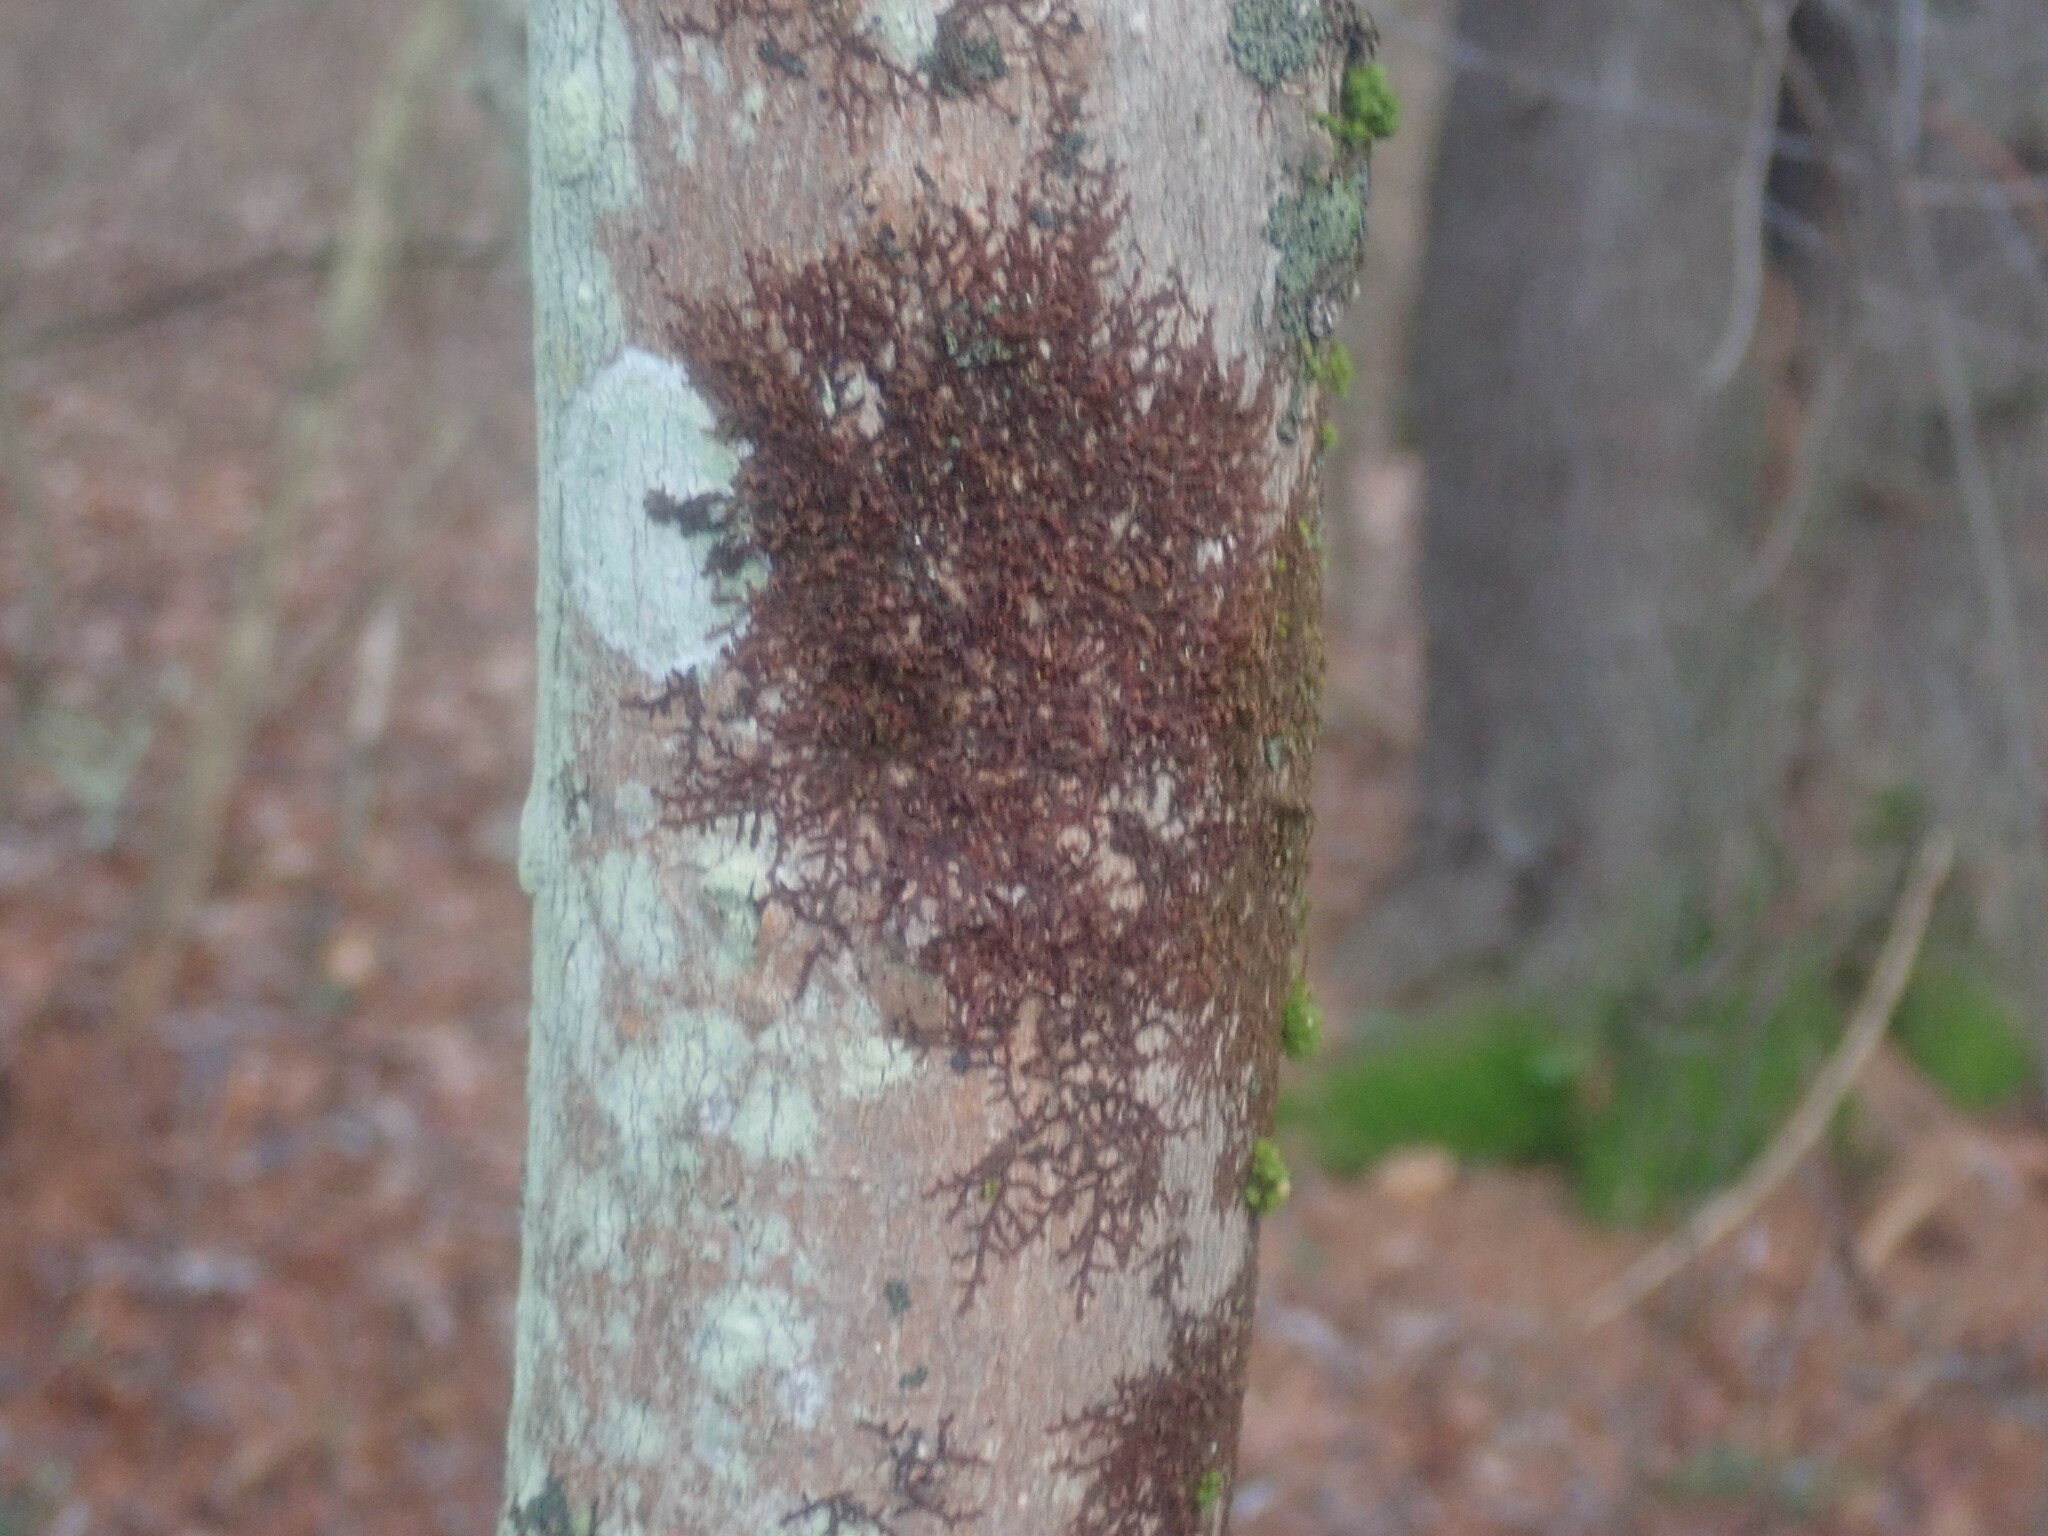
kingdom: Plantae
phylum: Marchantiophyta
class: Jungermanniopsida
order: Porellales
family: Frullaniaceae
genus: Frullania
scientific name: Frullania
